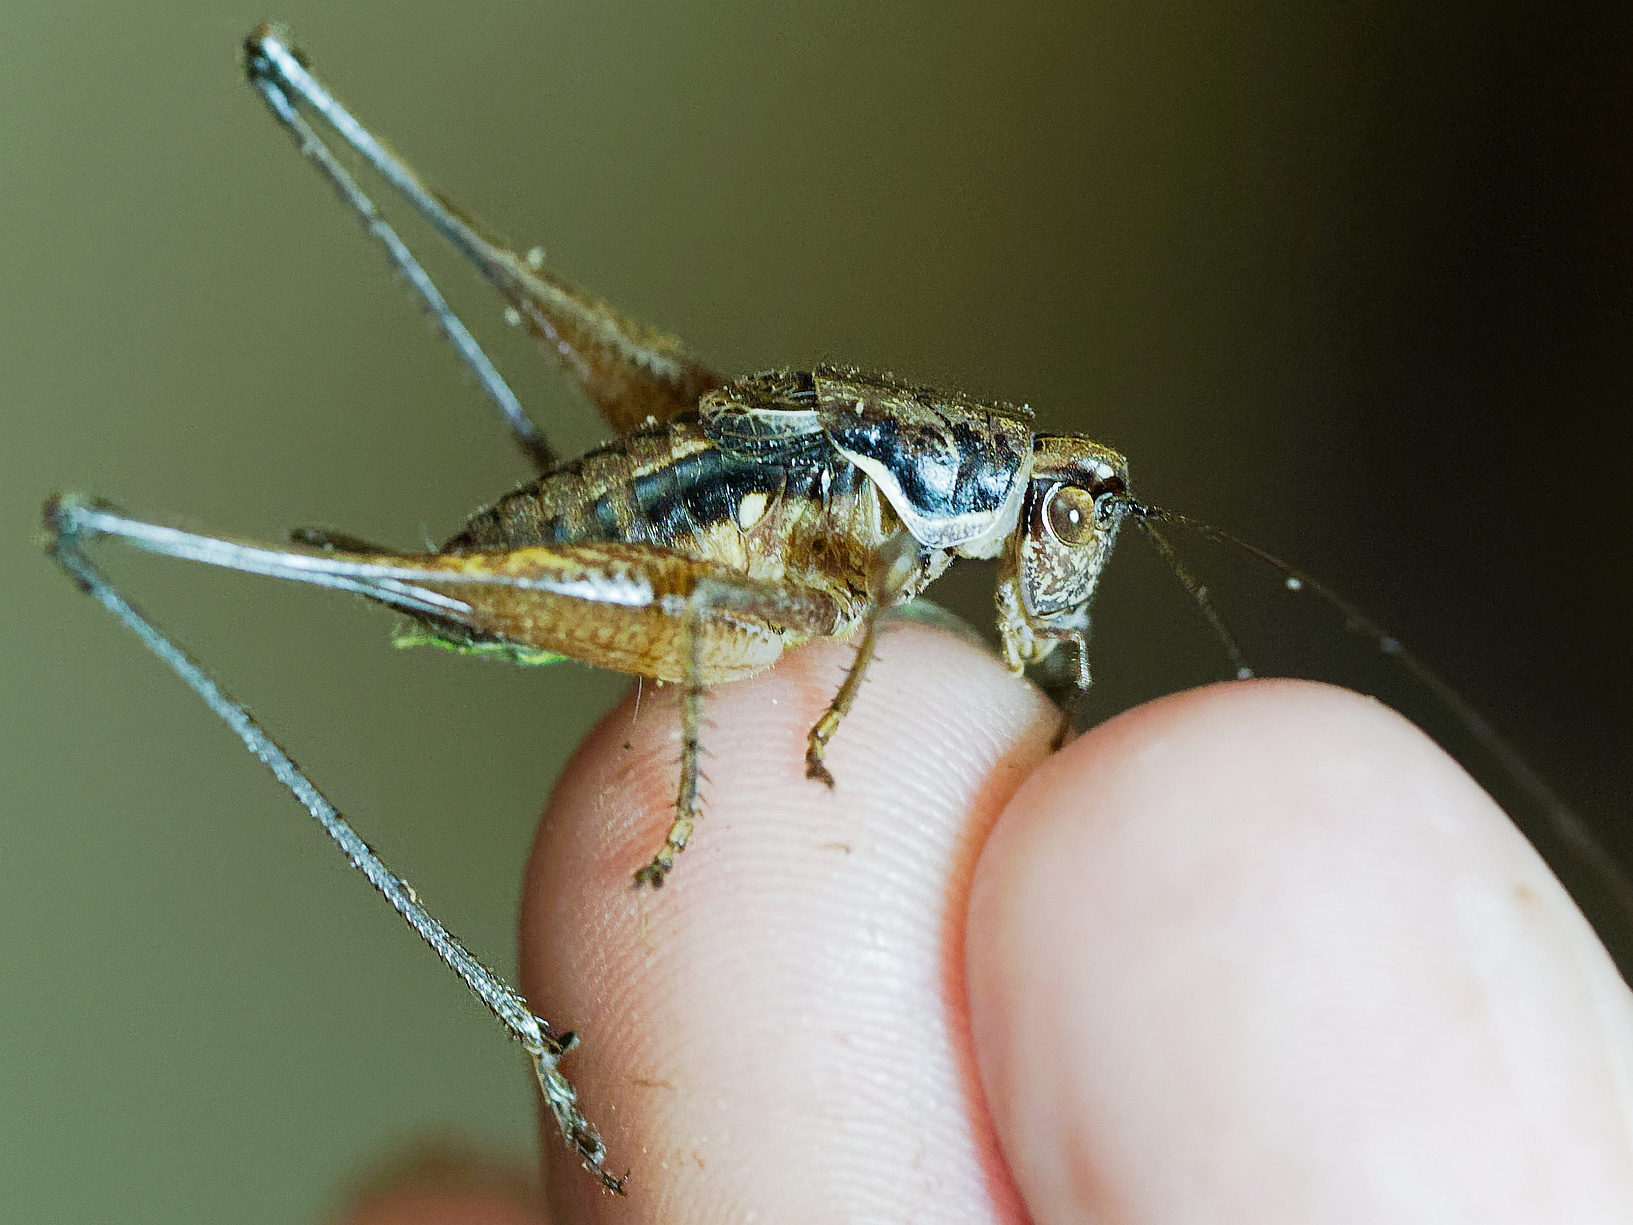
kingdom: Animalia
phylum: Arthropoda
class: Insecta
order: Orthoptera
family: Tettigoniidae
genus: Pachytrachis
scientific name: Pachytrachis gracilis
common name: Graceful bush-cricket
